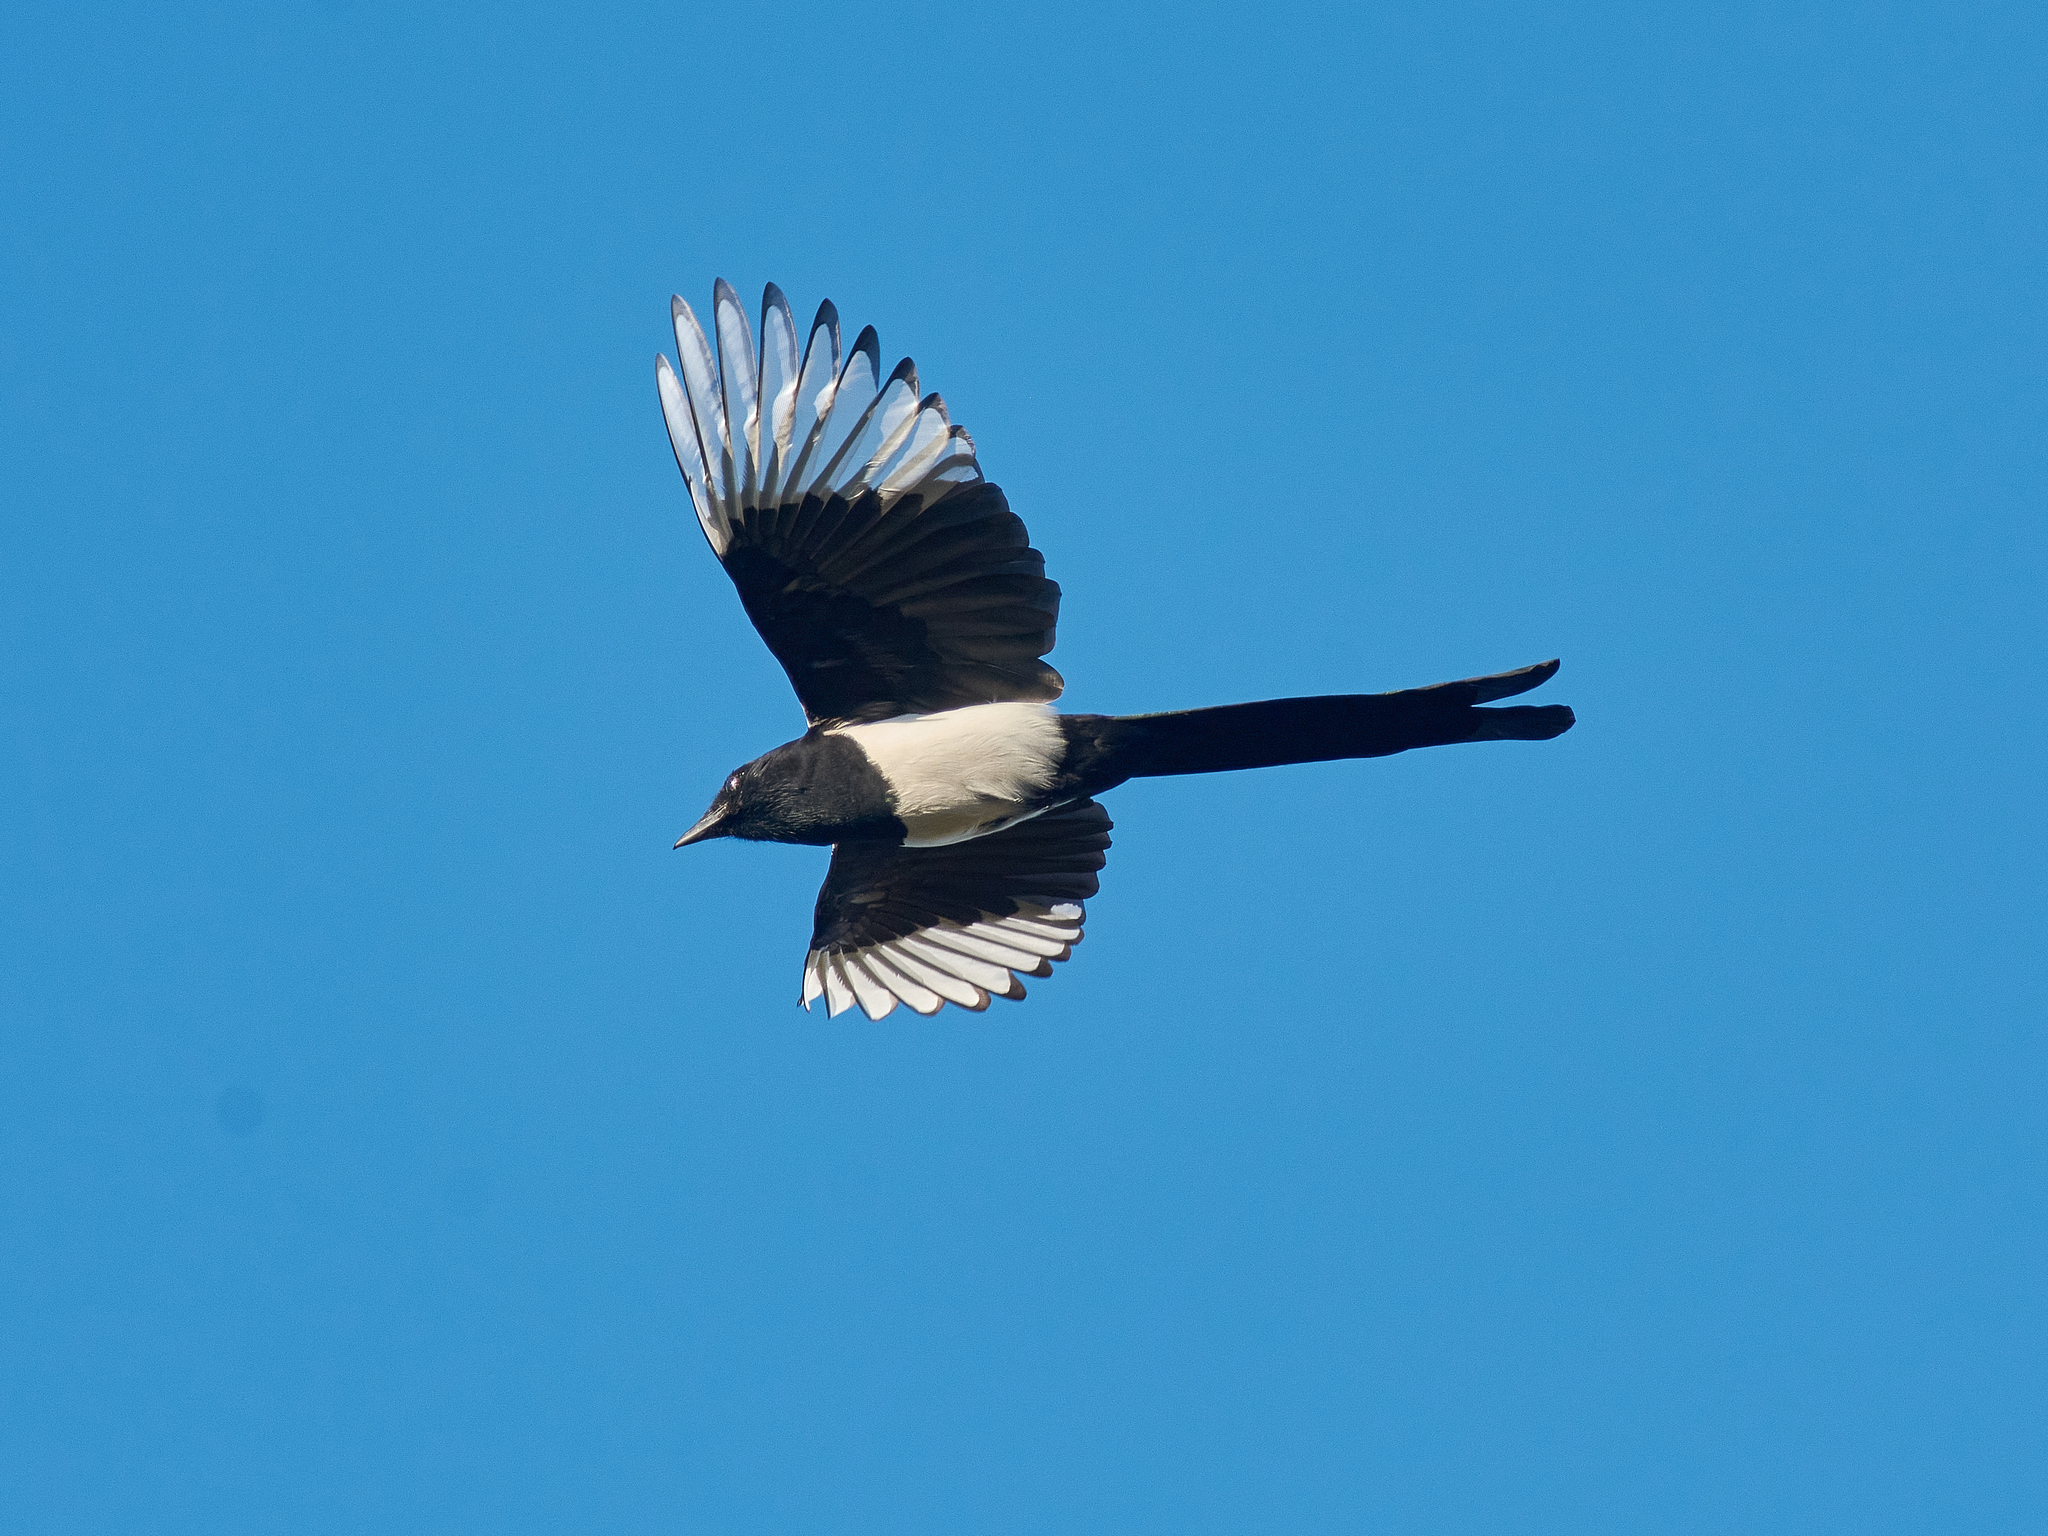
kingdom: Animalia
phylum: Chordata
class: Aves
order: Passeriformes
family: Corvidae
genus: Pica
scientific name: Pica pica
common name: Eurasian magpie
